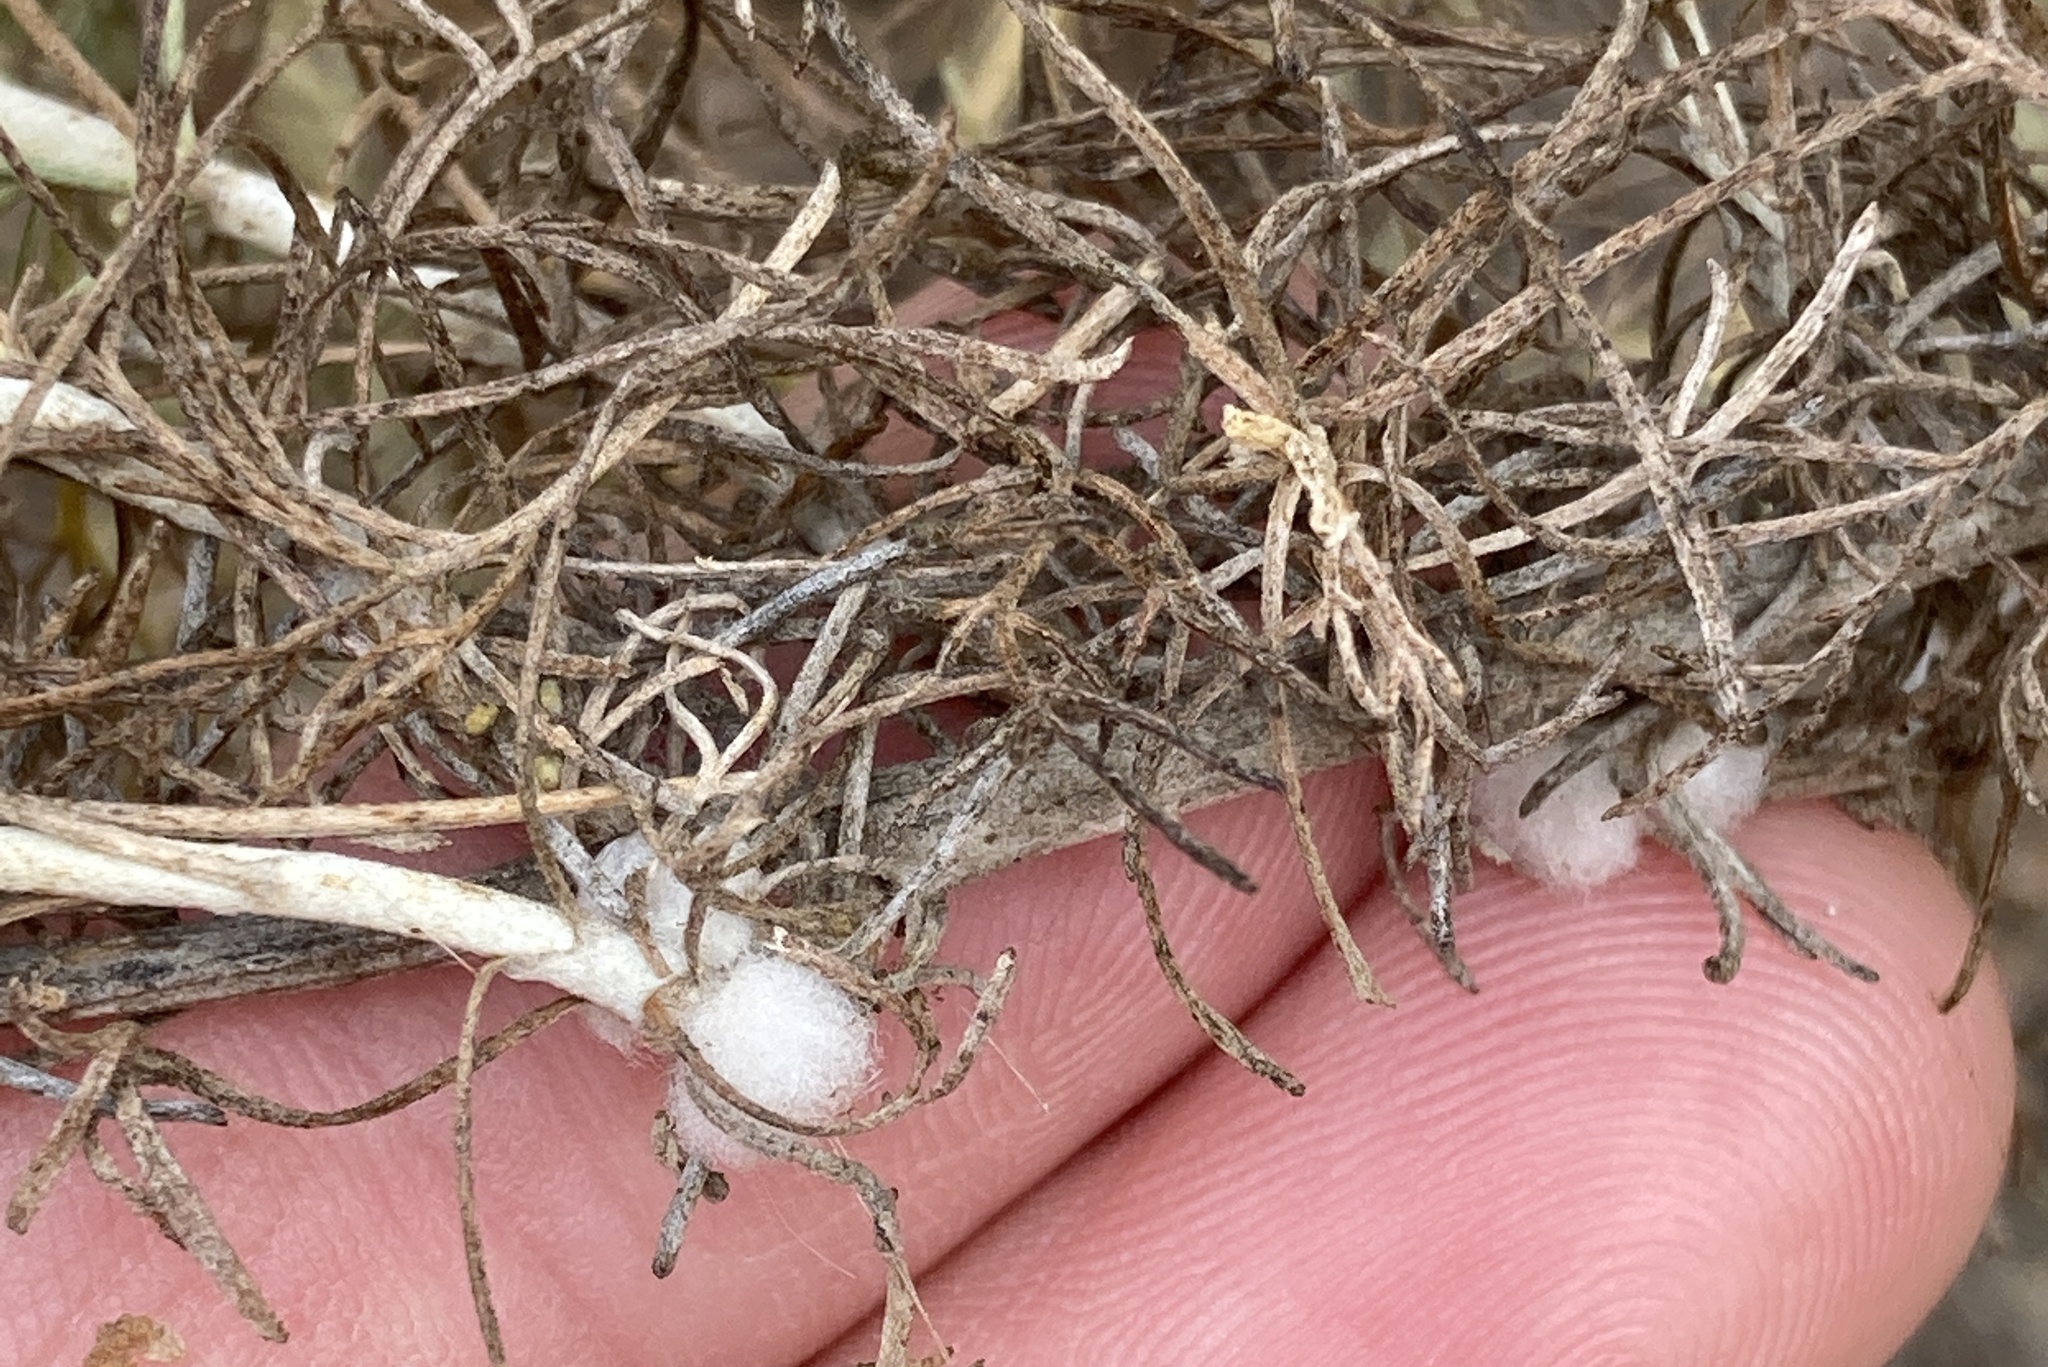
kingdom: Animalia
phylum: Arthropoda
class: Insecta
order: Diptera
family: Cecidomyiidae
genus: Rhopalomyia
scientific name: Rhopalomyia floccosa
